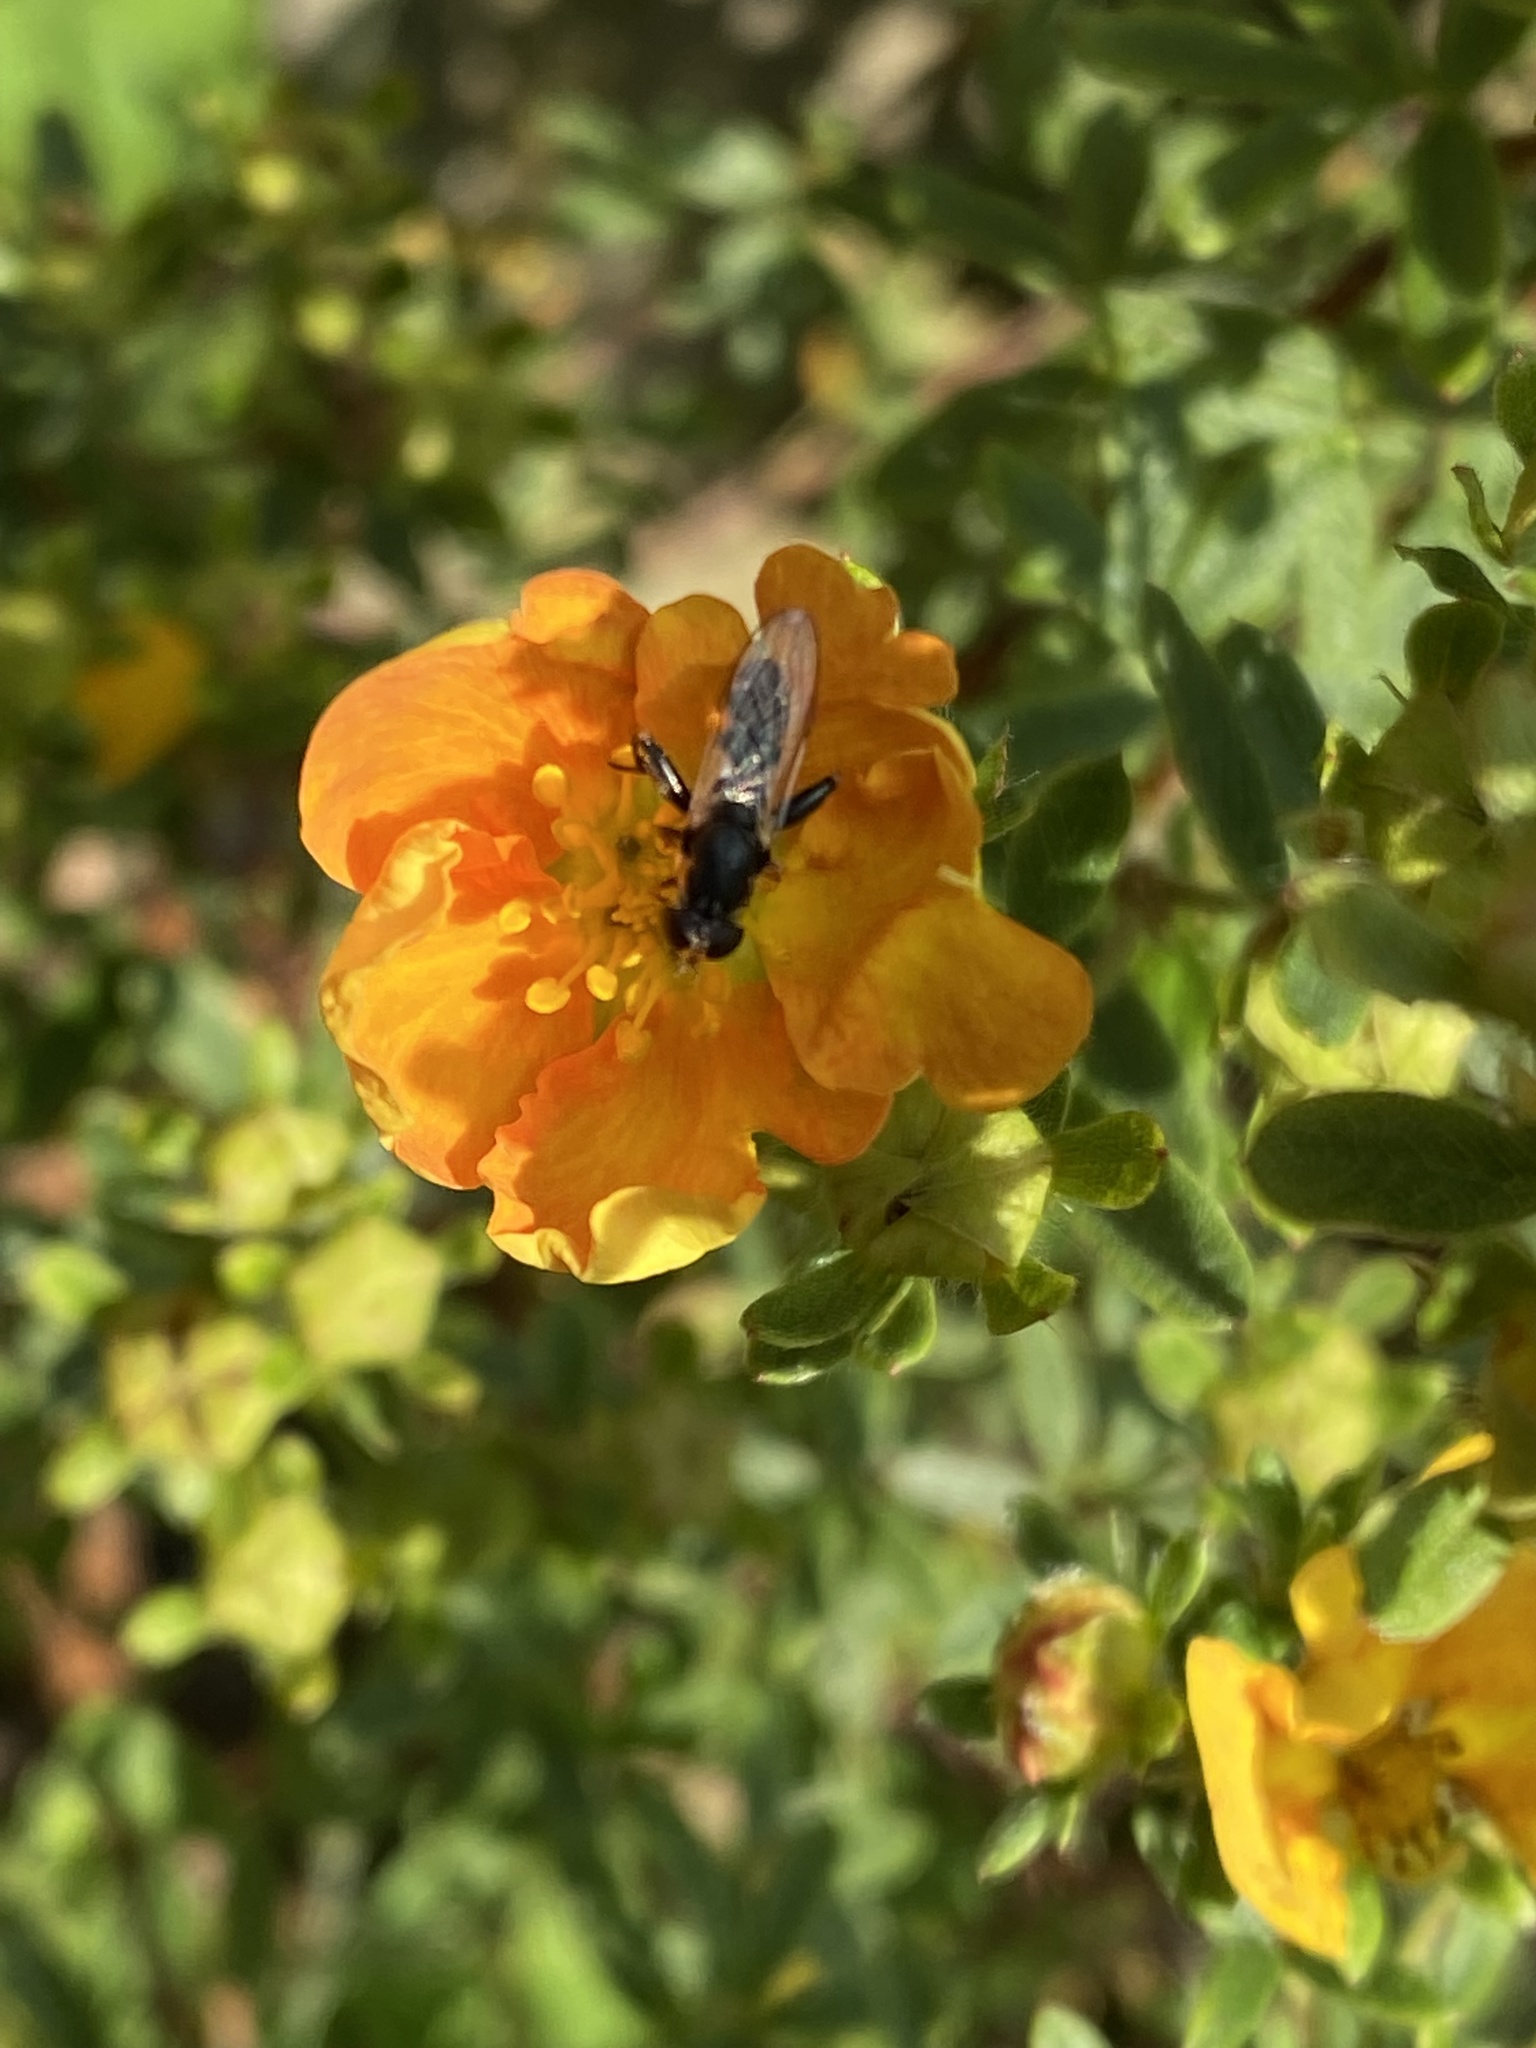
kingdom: Animalia
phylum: Arthropoda
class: Insecta
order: Diptera
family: Syrphidae
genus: Syritta
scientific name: Syritta pipiens
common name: Hover fly
